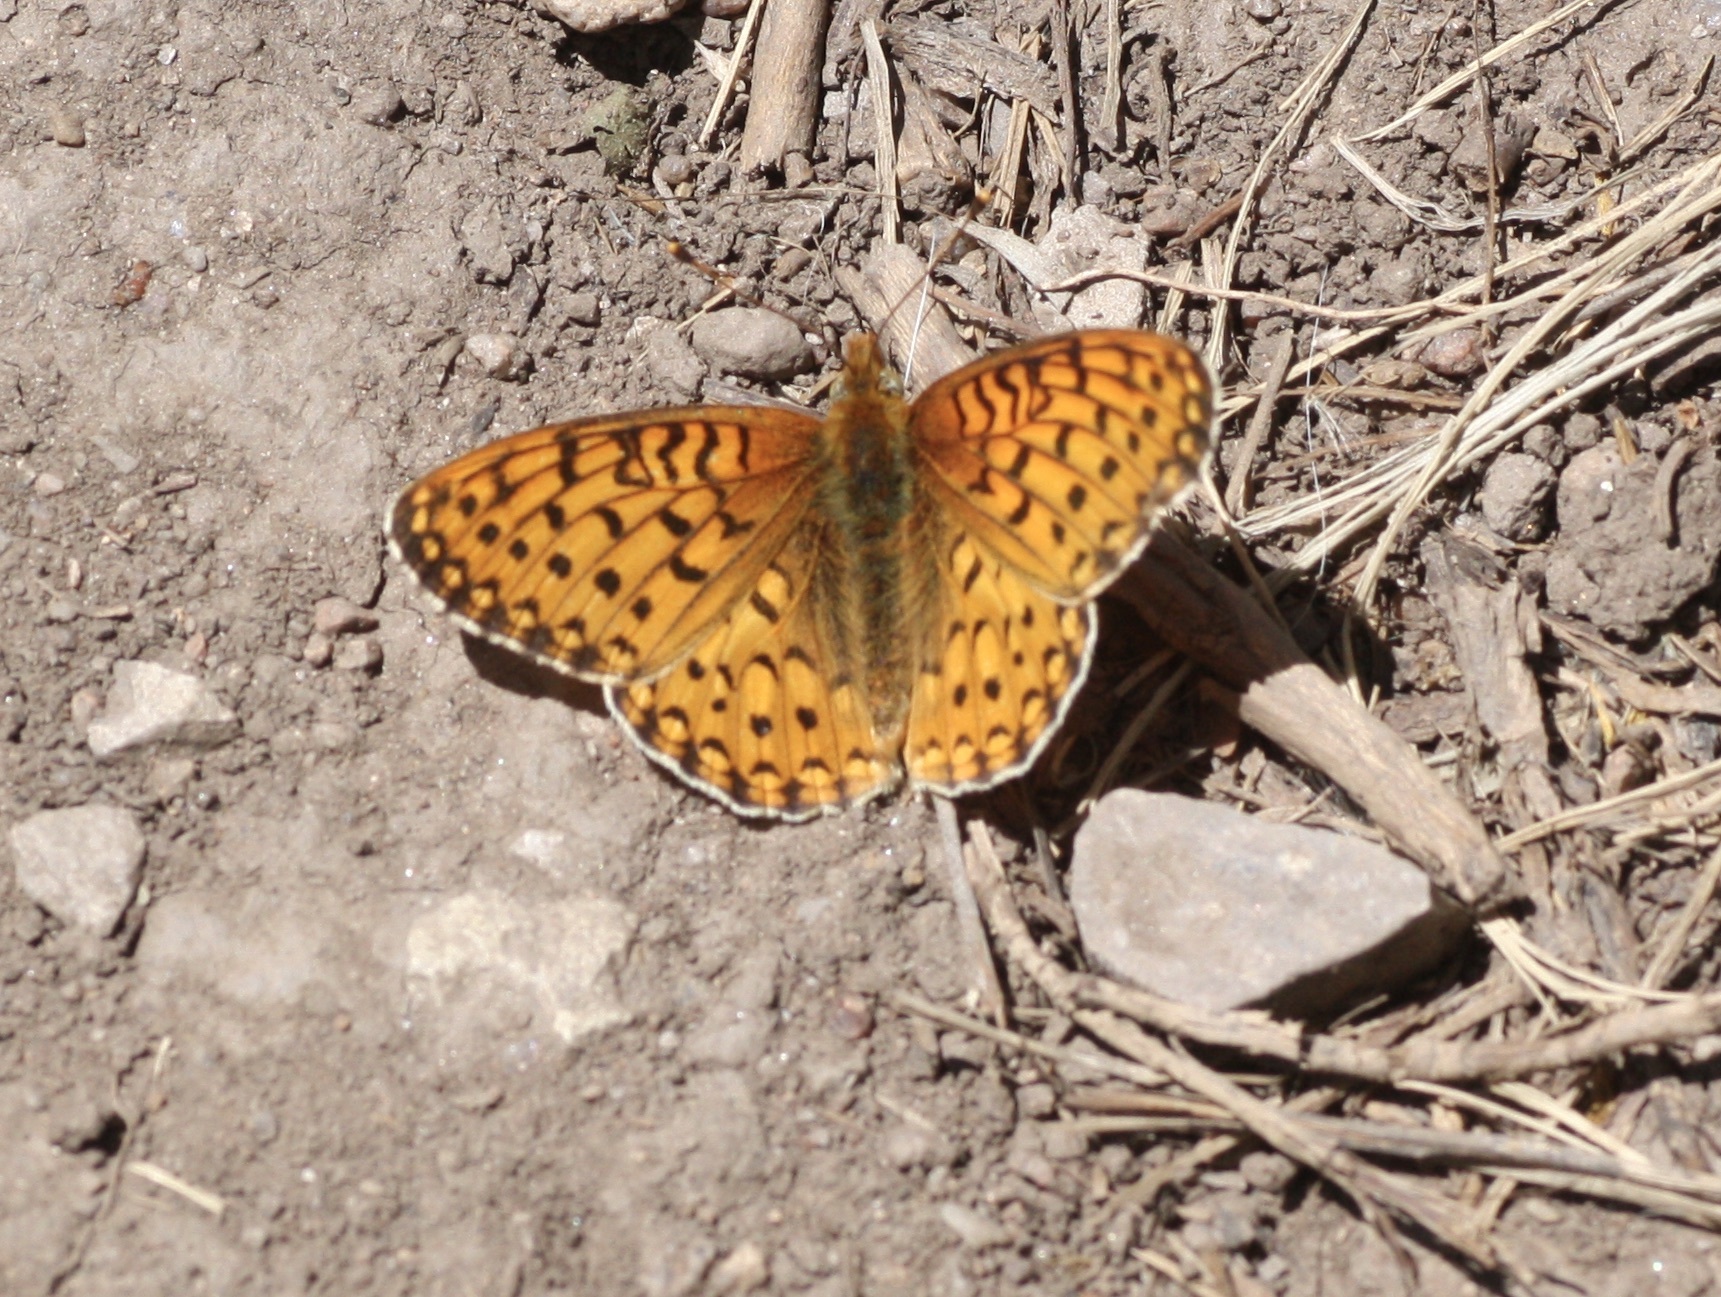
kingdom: Animalia
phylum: Arthropoda
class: Insecta
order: Lepidoptera
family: Nymphalidae
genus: Speyeria
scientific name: Speyeria mormonia
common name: Mormon fritillary
